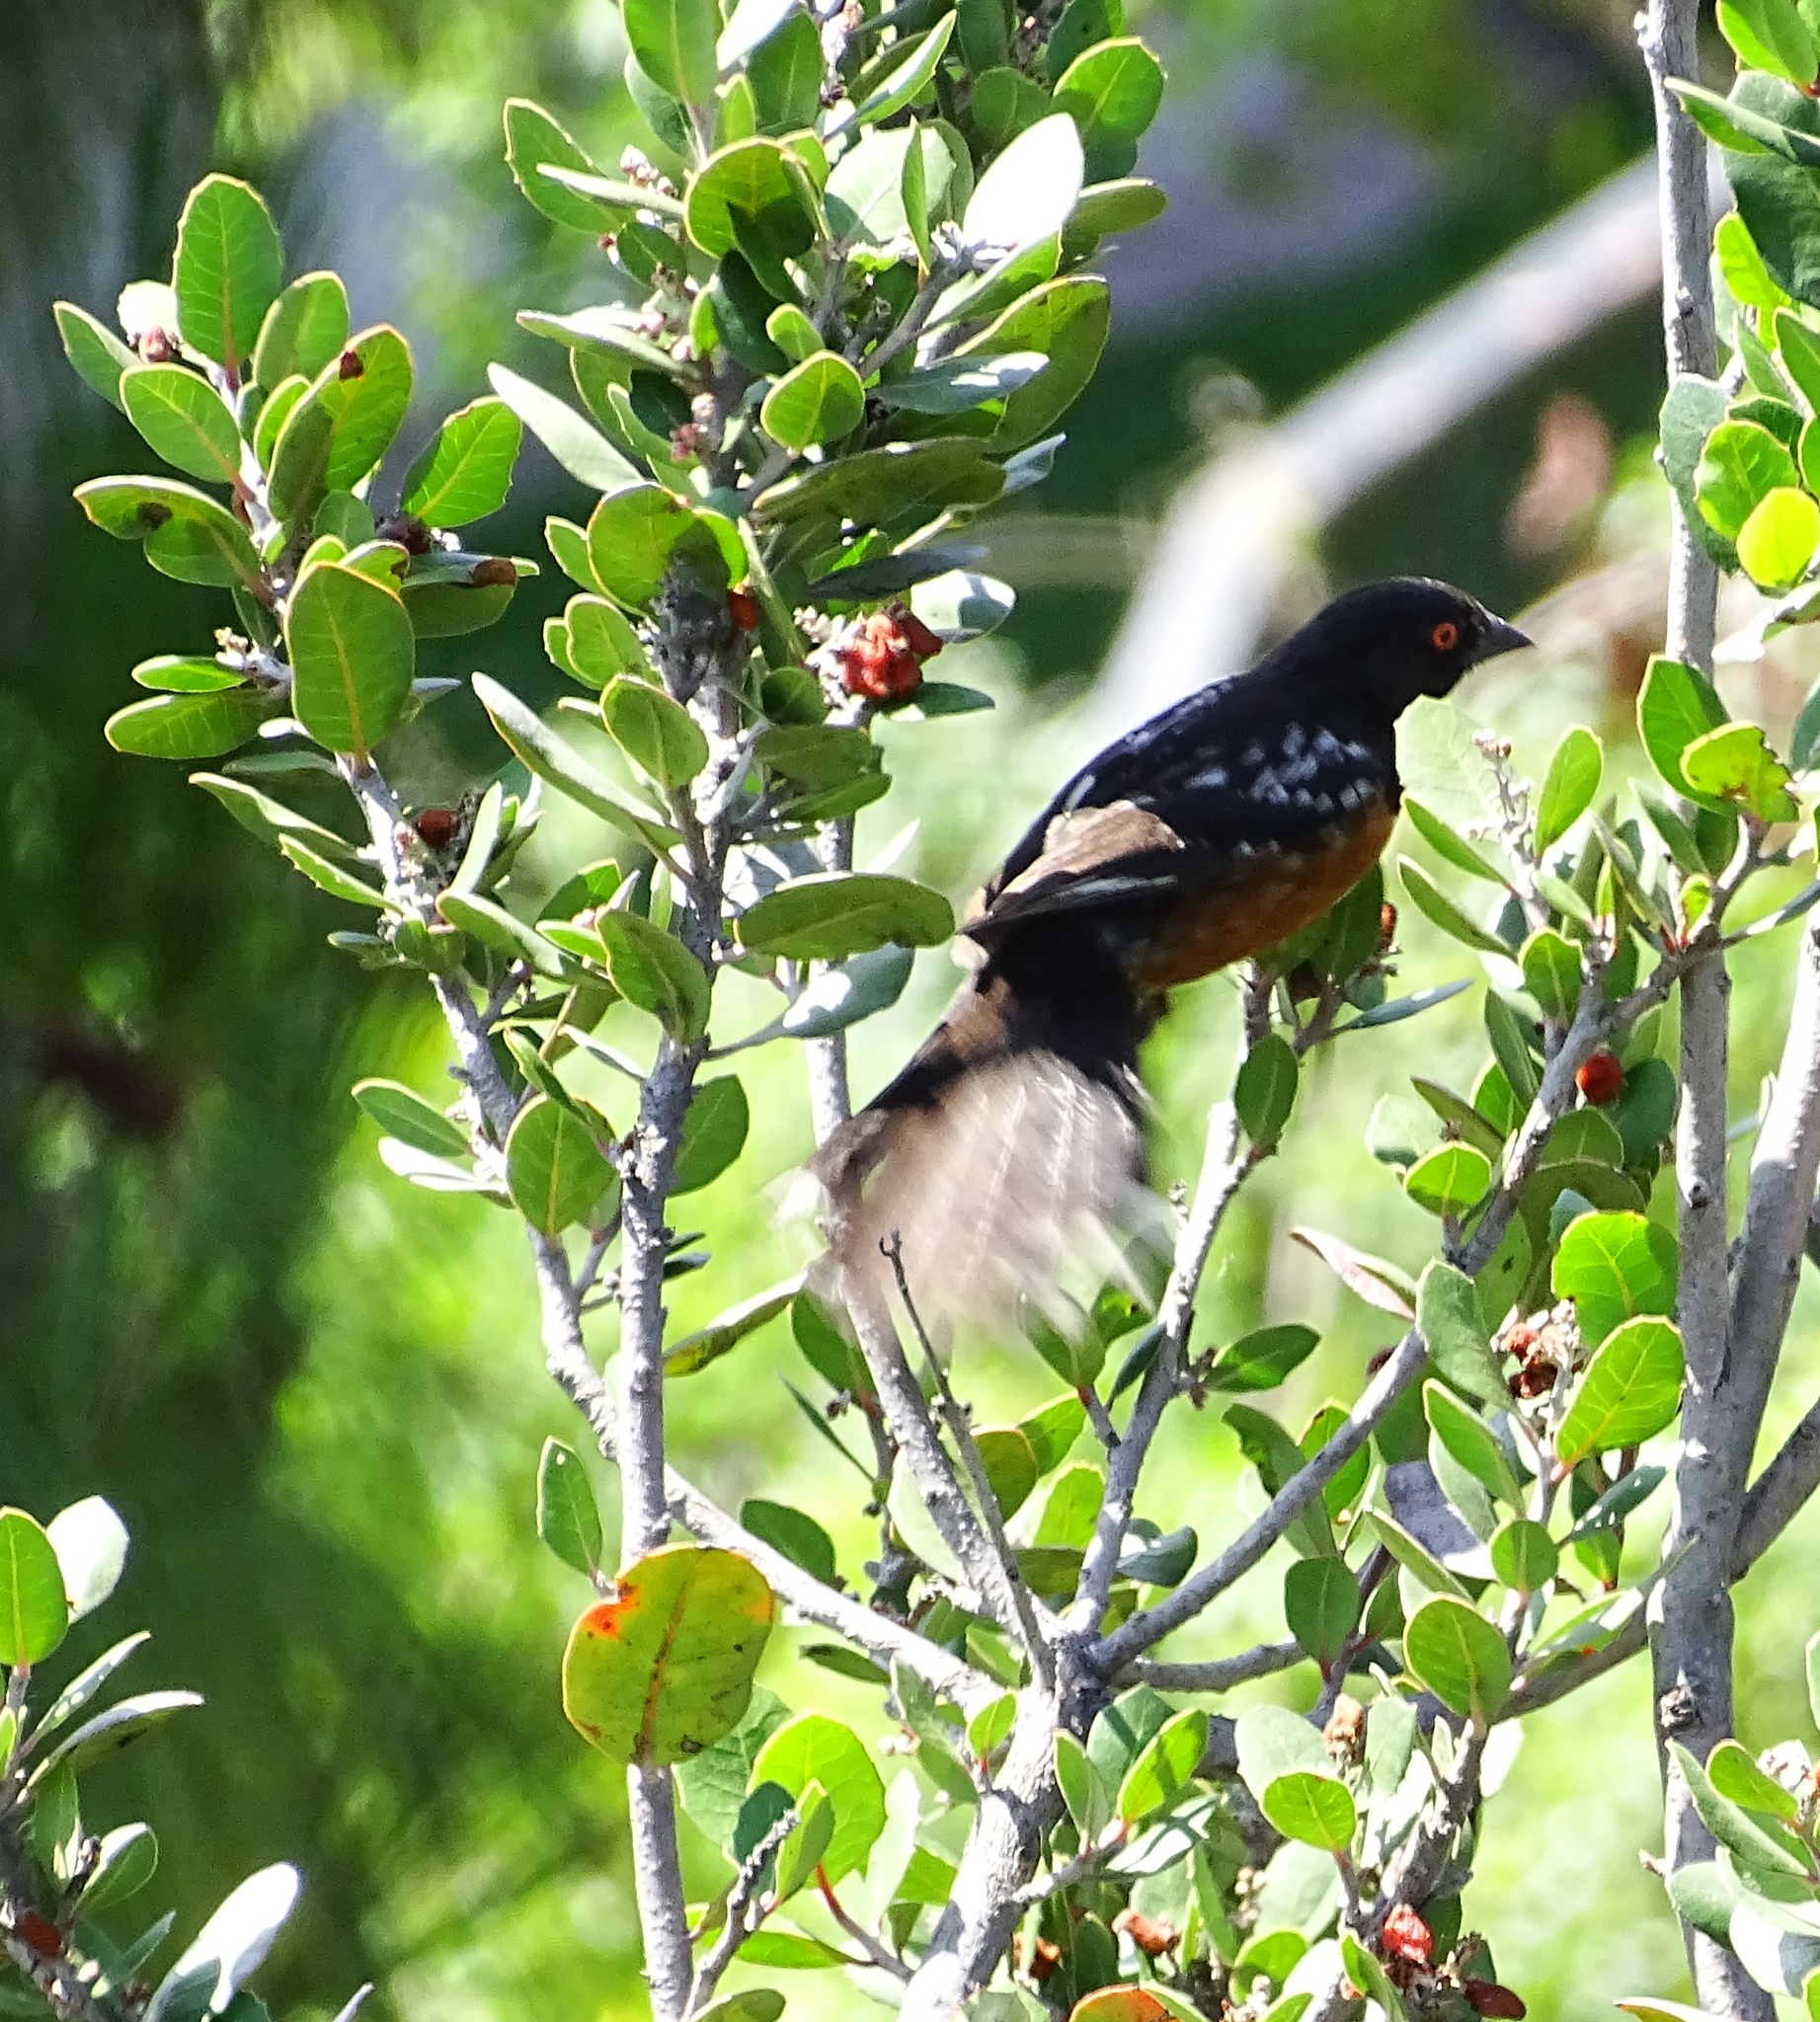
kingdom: Animalia
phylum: Chordata
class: Aves
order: Passeriformes
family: Passerellidae
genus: Pipilo
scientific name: Pipilo maculatus
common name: Spotted towhee
